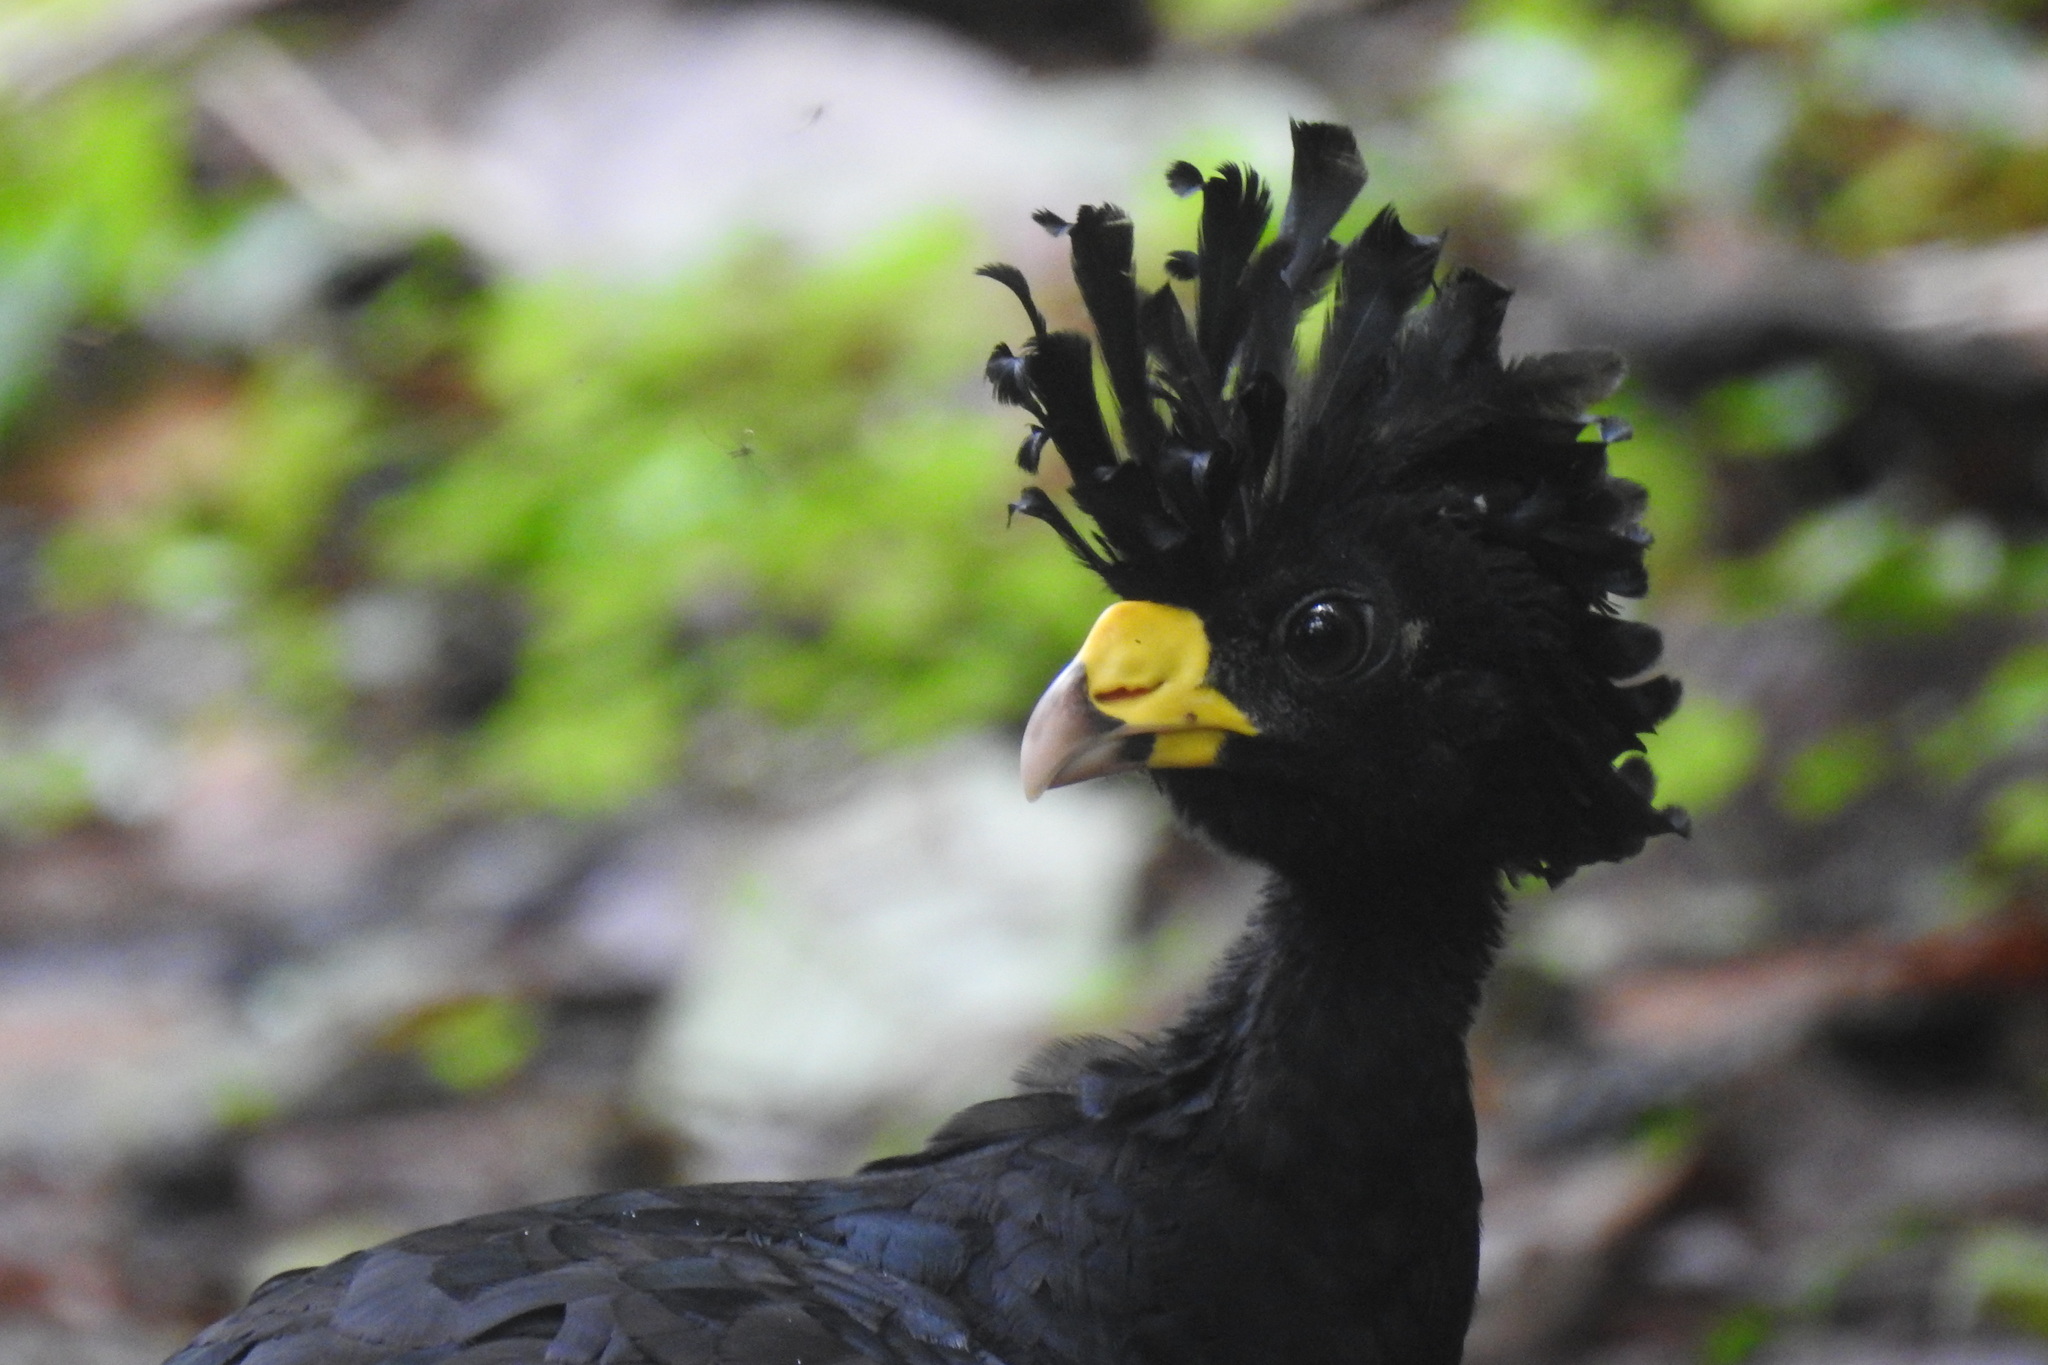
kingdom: Animalia
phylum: Chordata
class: Aves
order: Galliformes
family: Cracidae
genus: Crax
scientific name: Crax rubra
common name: Great curassow
